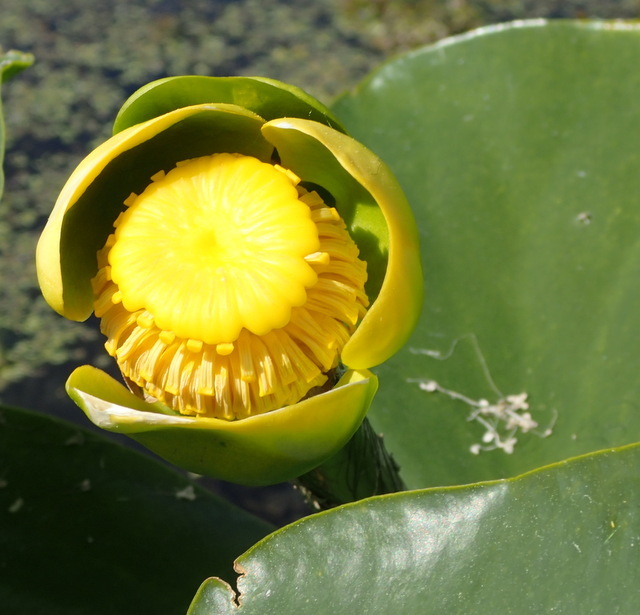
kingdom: Plantae
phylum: Tracheophyta
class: Magnoliopsida
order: Nymphaeales
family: Nymphaeaceae
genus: Nuphar
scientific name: Nuphar advena
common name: Spatter-dock
